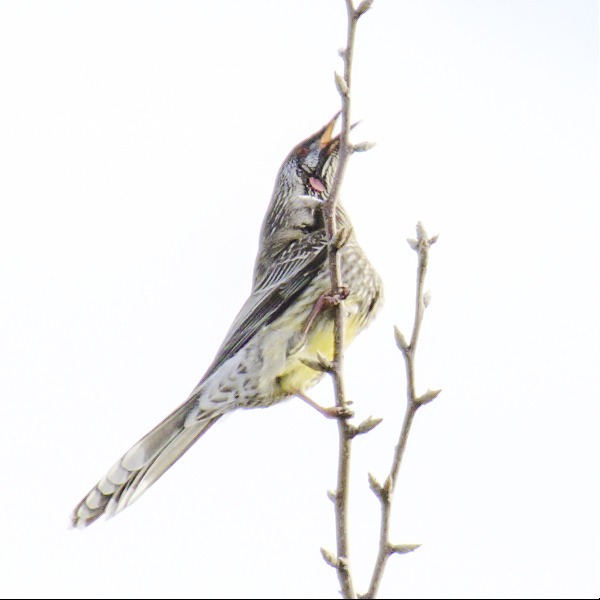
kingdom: Animalia
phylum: Chordata
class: Aves
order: Passeriformes
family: Meliphagidae
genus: Anthochaera
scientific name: Anthochaera carunculata
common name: Red wattlebird
